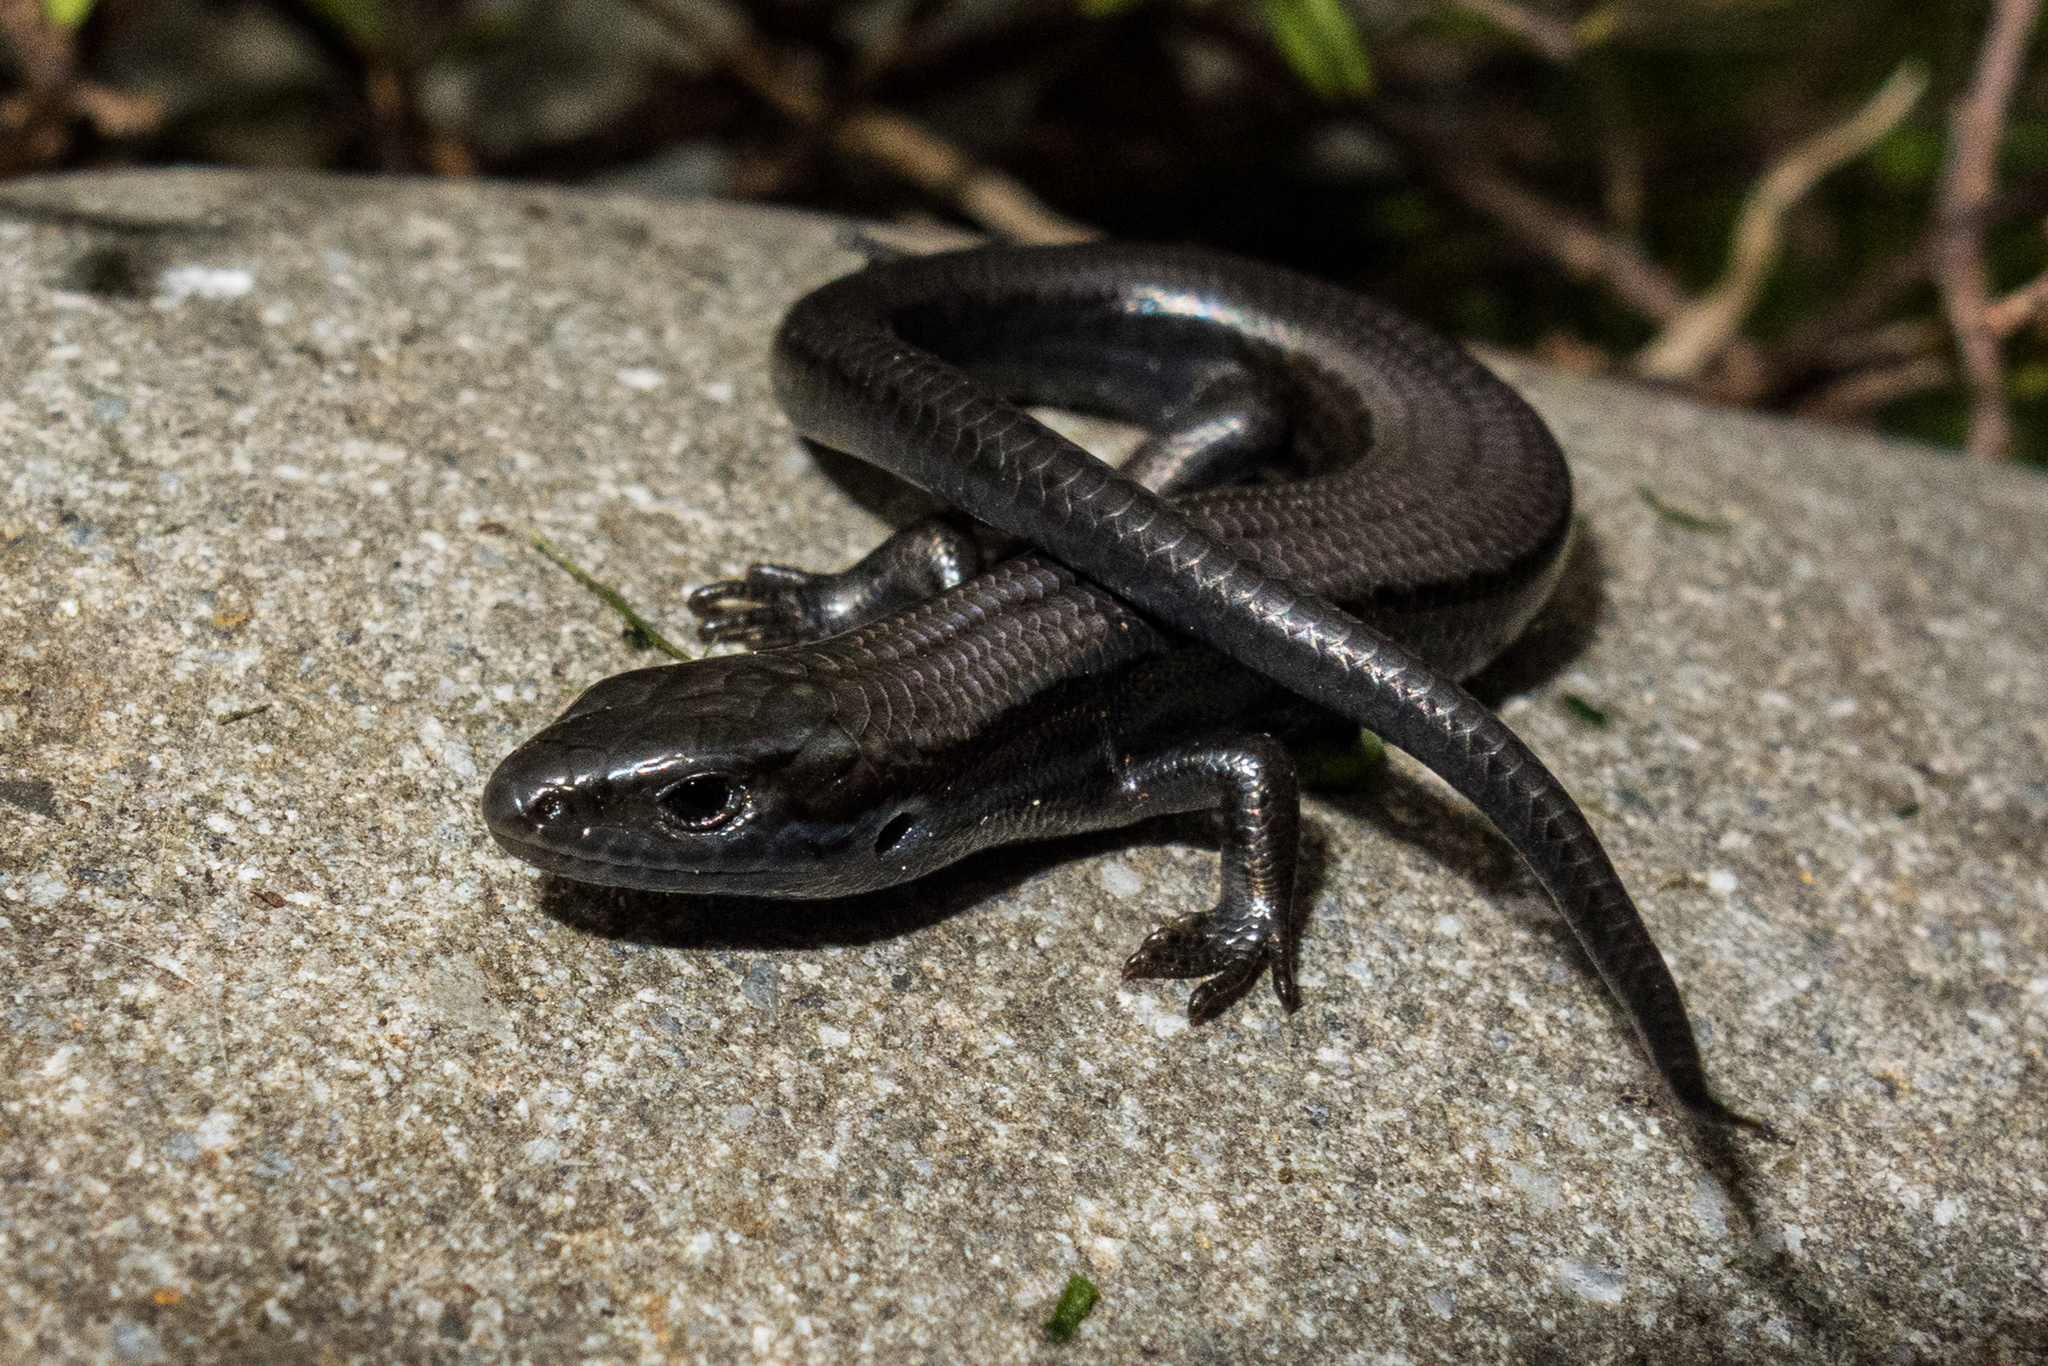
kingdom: Animalia
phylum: Chordata
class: Squamata
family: Scincidae
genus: Oligosoma
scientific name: Oligosoma polychroma
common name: Common new zealand skink
